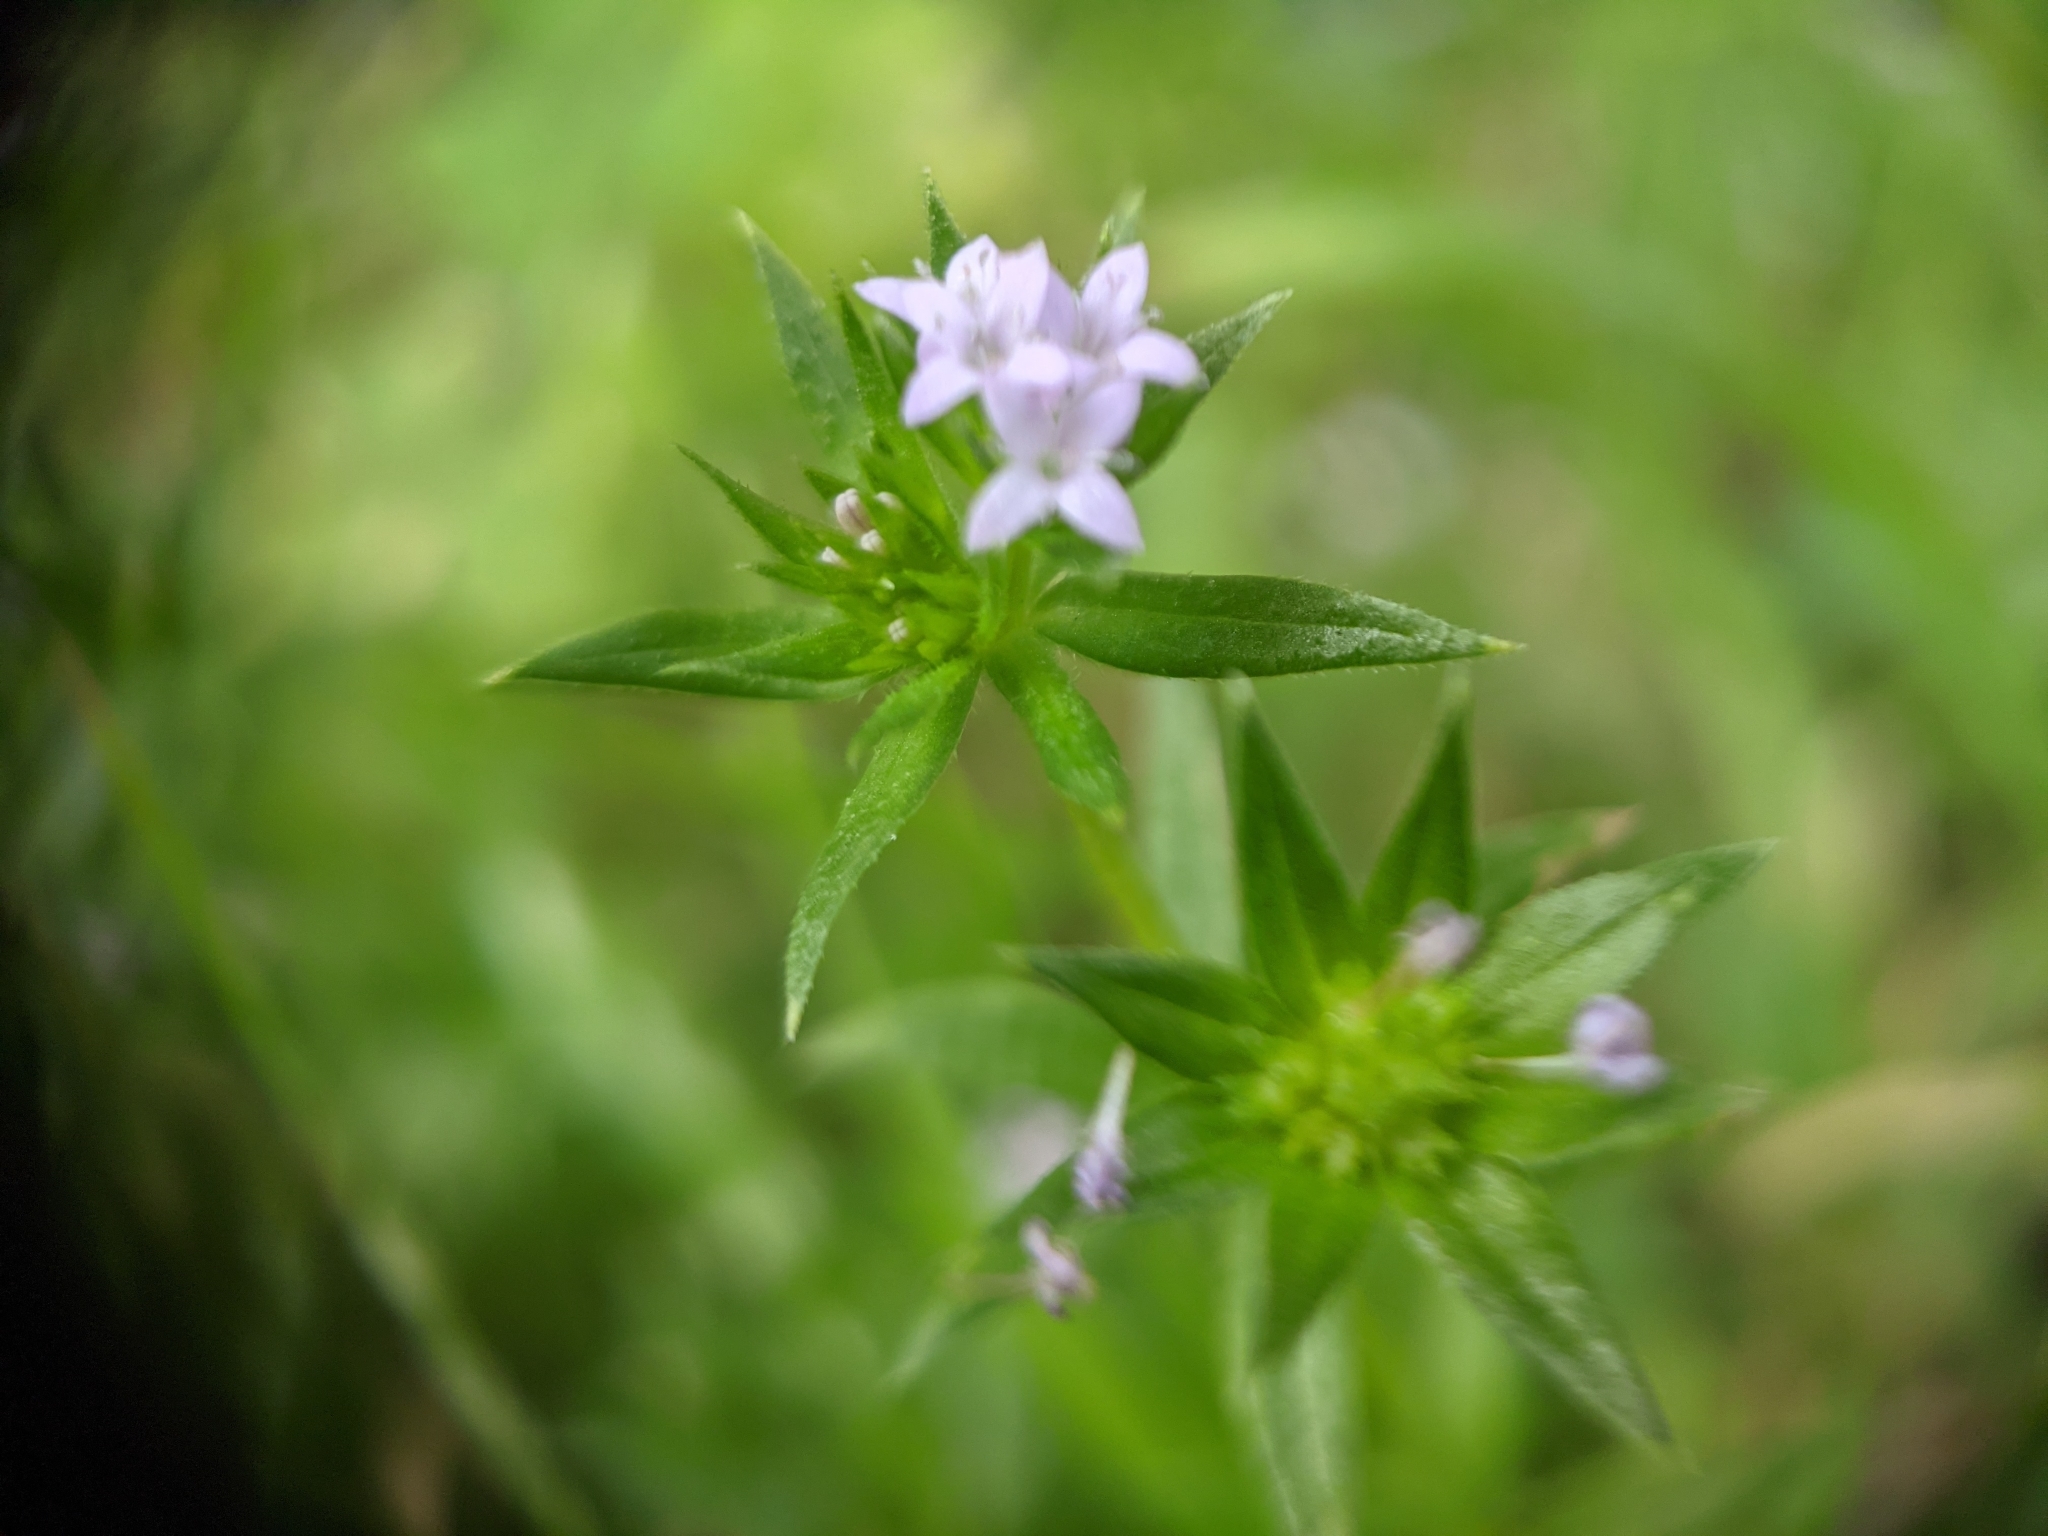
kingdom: Plantae
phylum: Tracheophyta
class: Magnoliopsida
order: Gentianales
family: Rubiaceae
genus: Sherardia
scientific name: Sherardia arvensis
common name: Field madder
